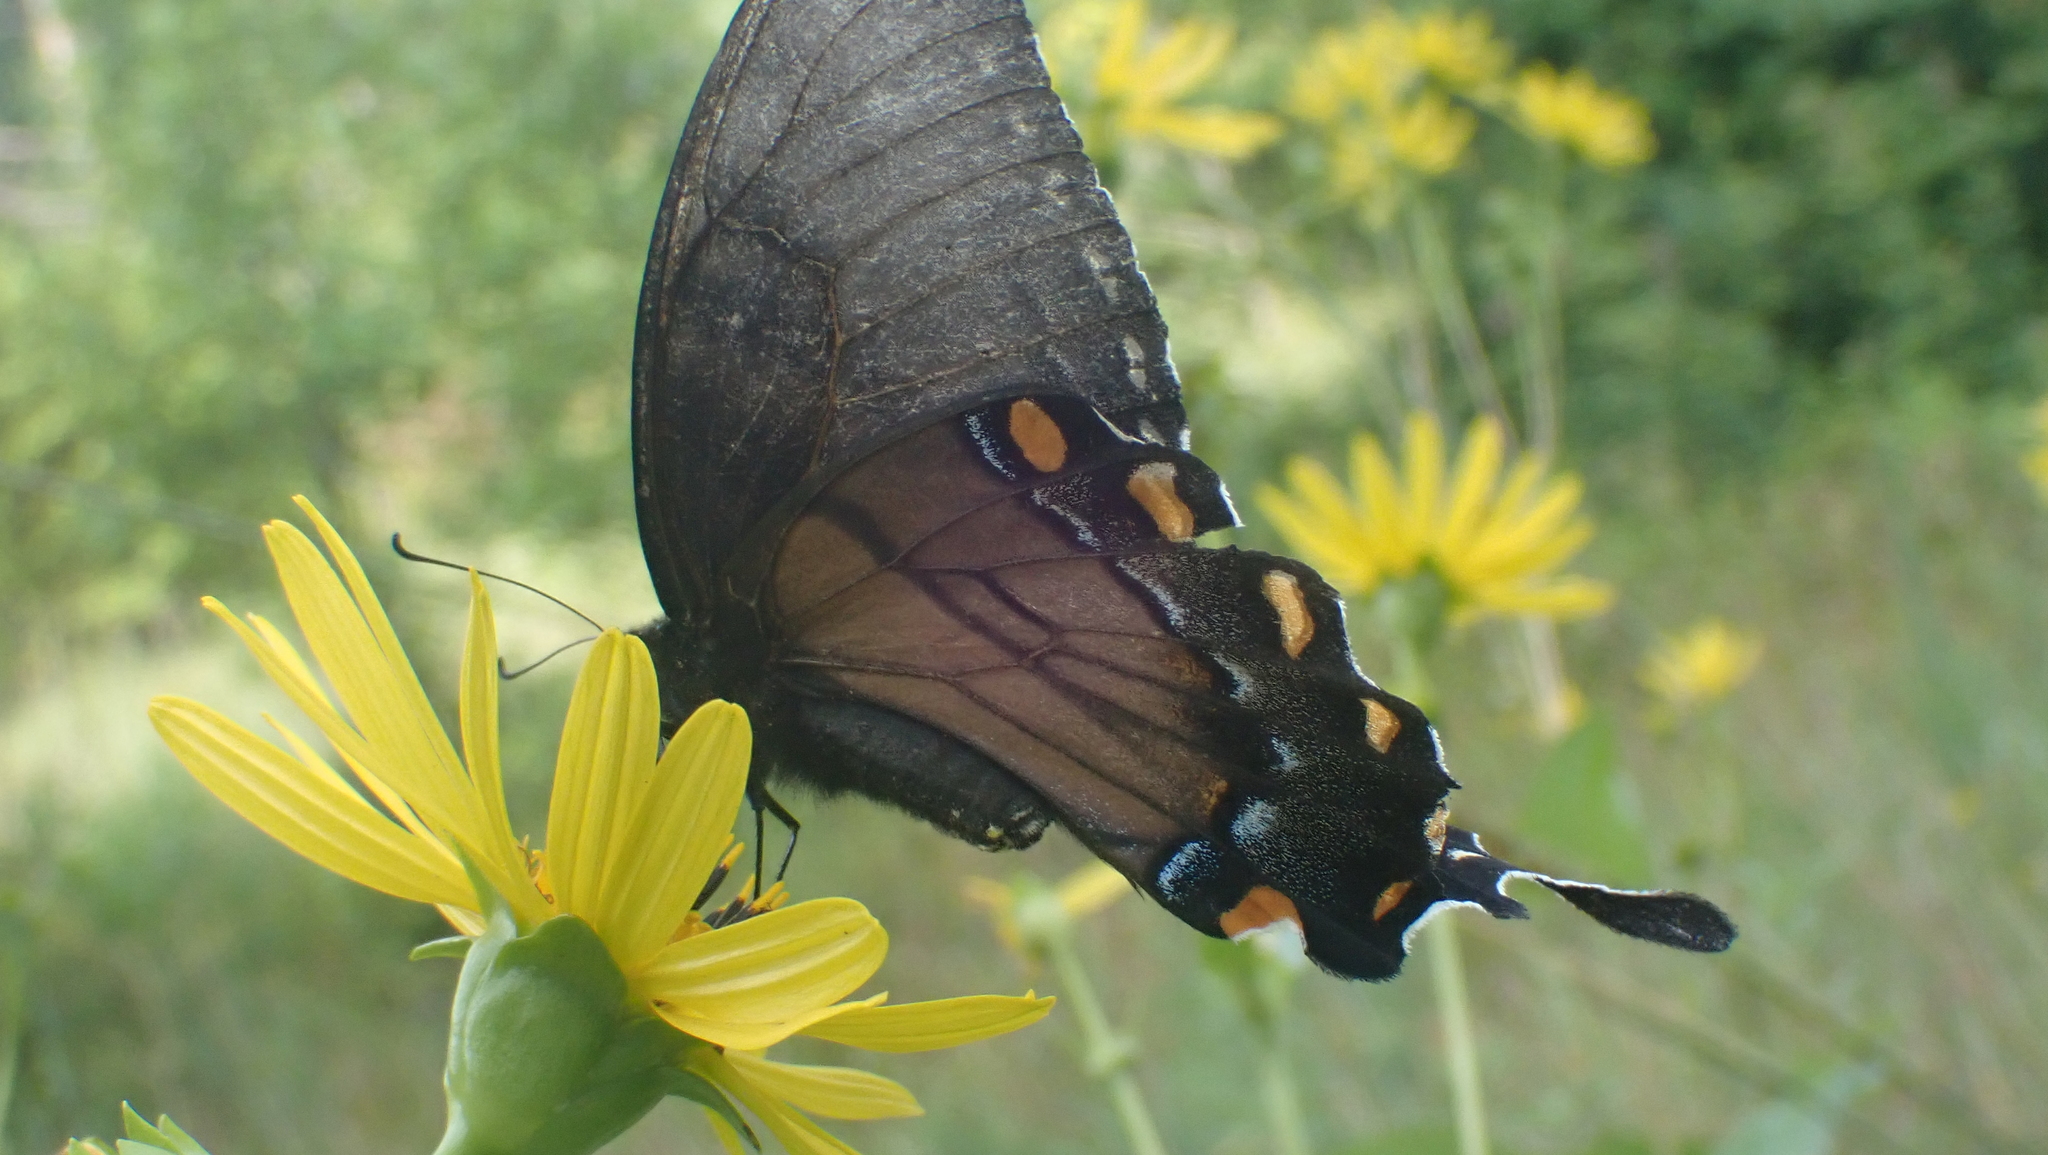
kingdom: Animalia
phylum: Arthropoda
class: Insecta
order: Lepidoptera
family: Papilionidae
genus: Papilio
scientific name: Papilio glaucus
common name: Tiger swallowtail
